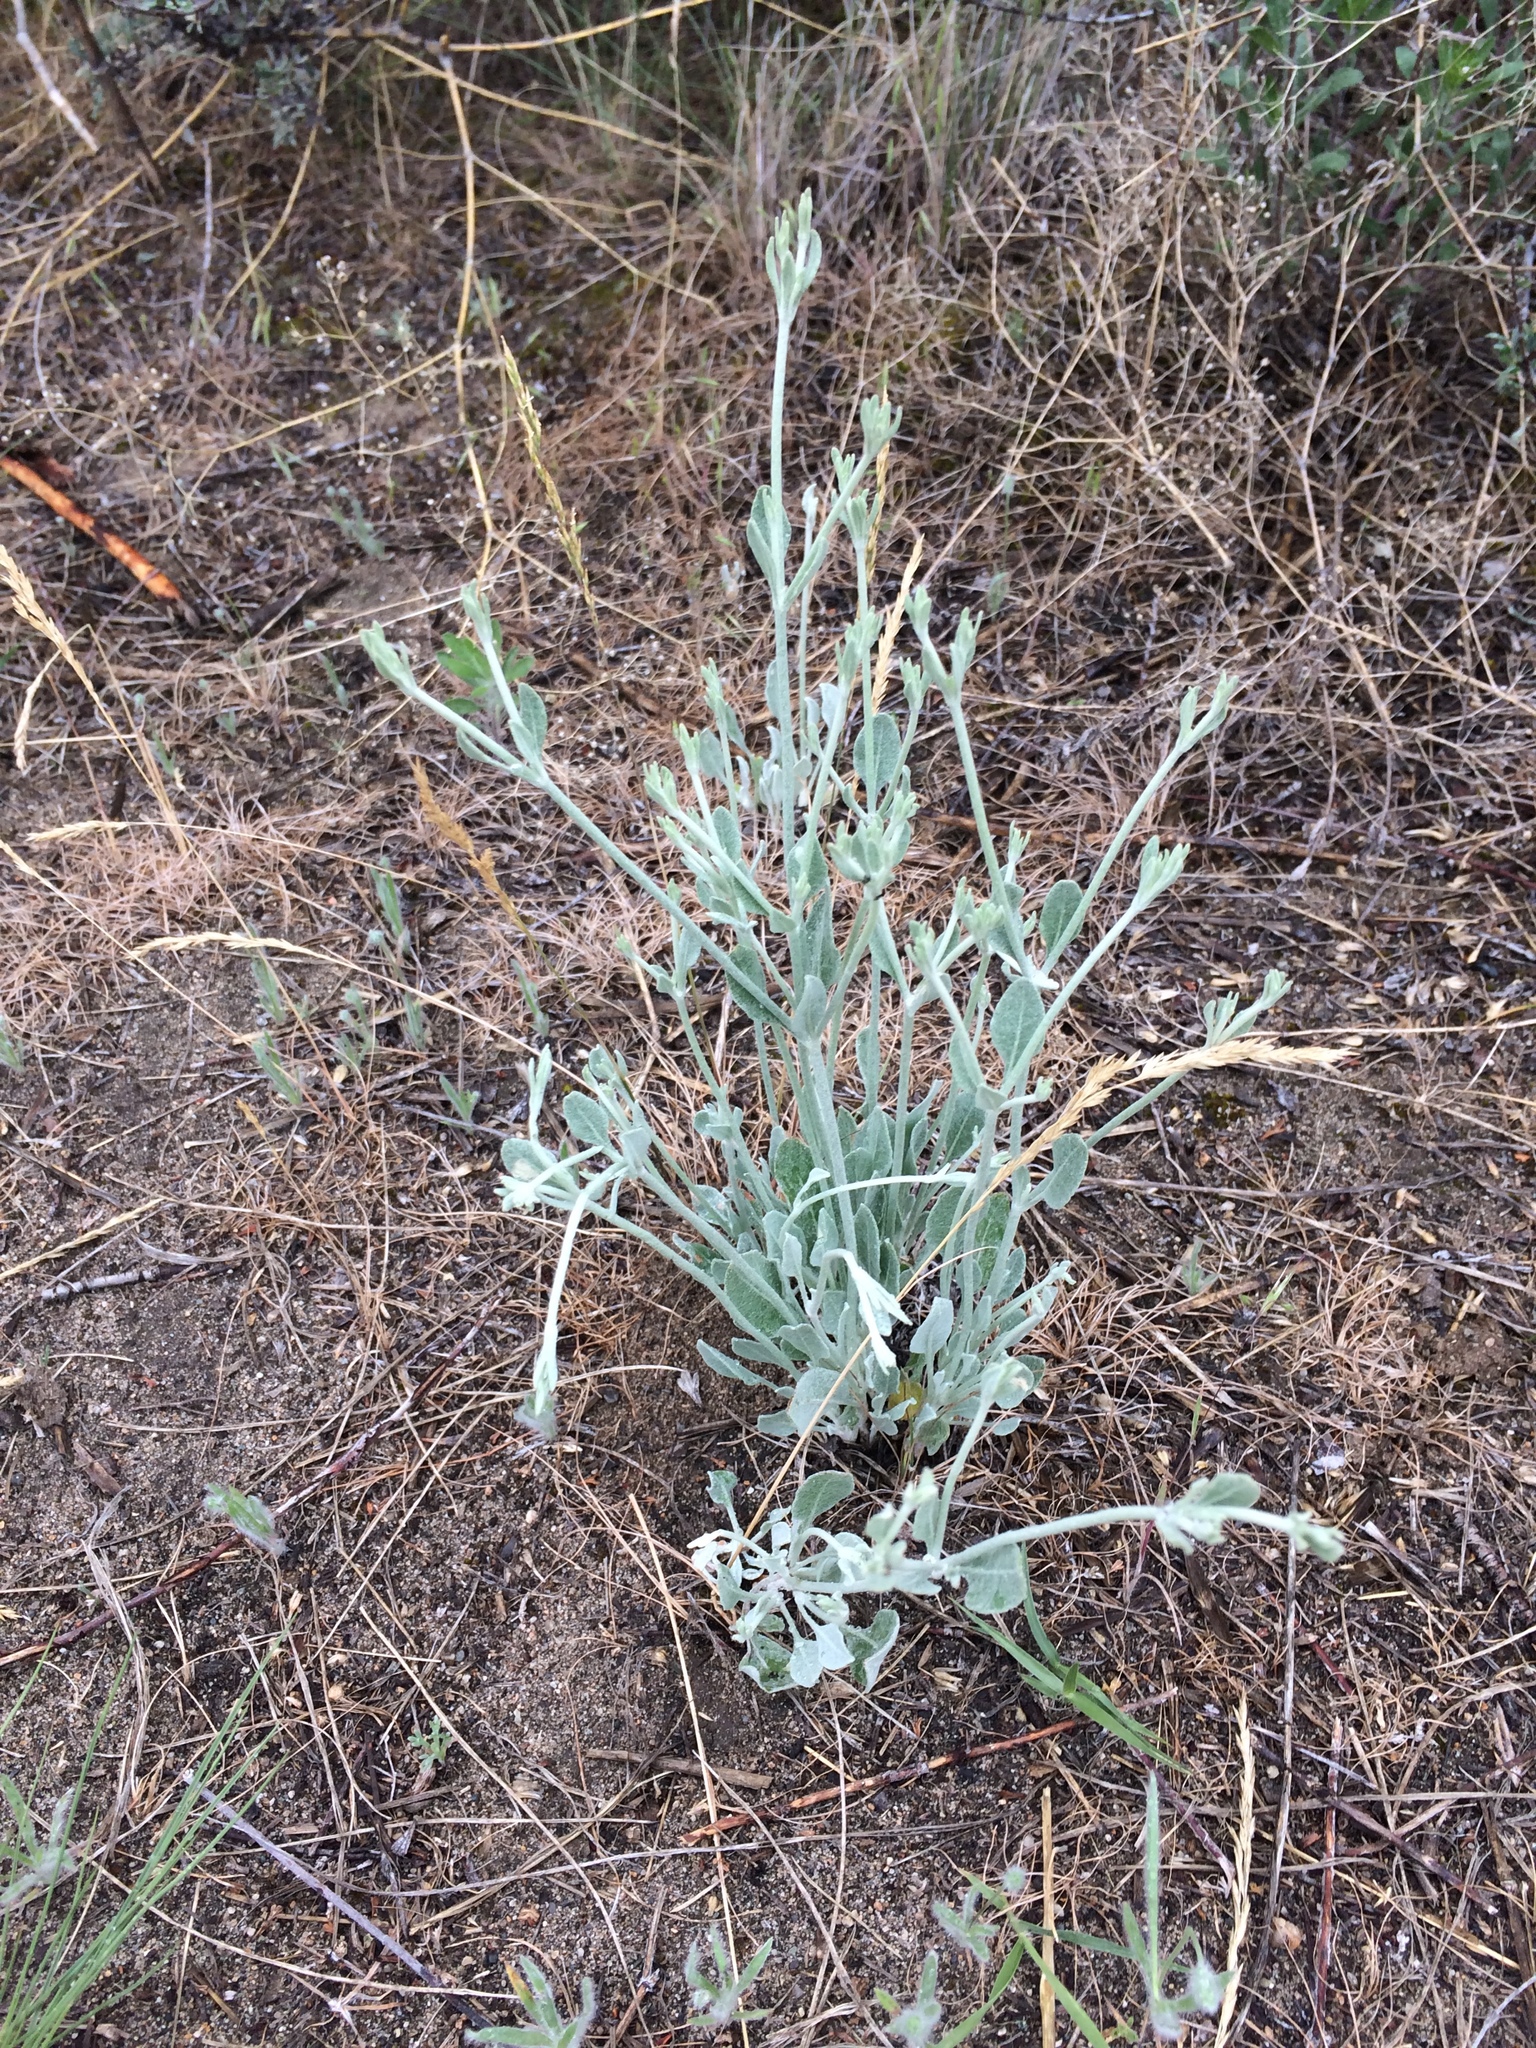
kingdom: Plantae
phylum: Tracheophyta
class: Magnoliopsida
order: Caryophyllales
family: Polygonaceae
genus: Eriogonum
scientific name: Eriogonum niveum
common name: Snow wild buckwheat
